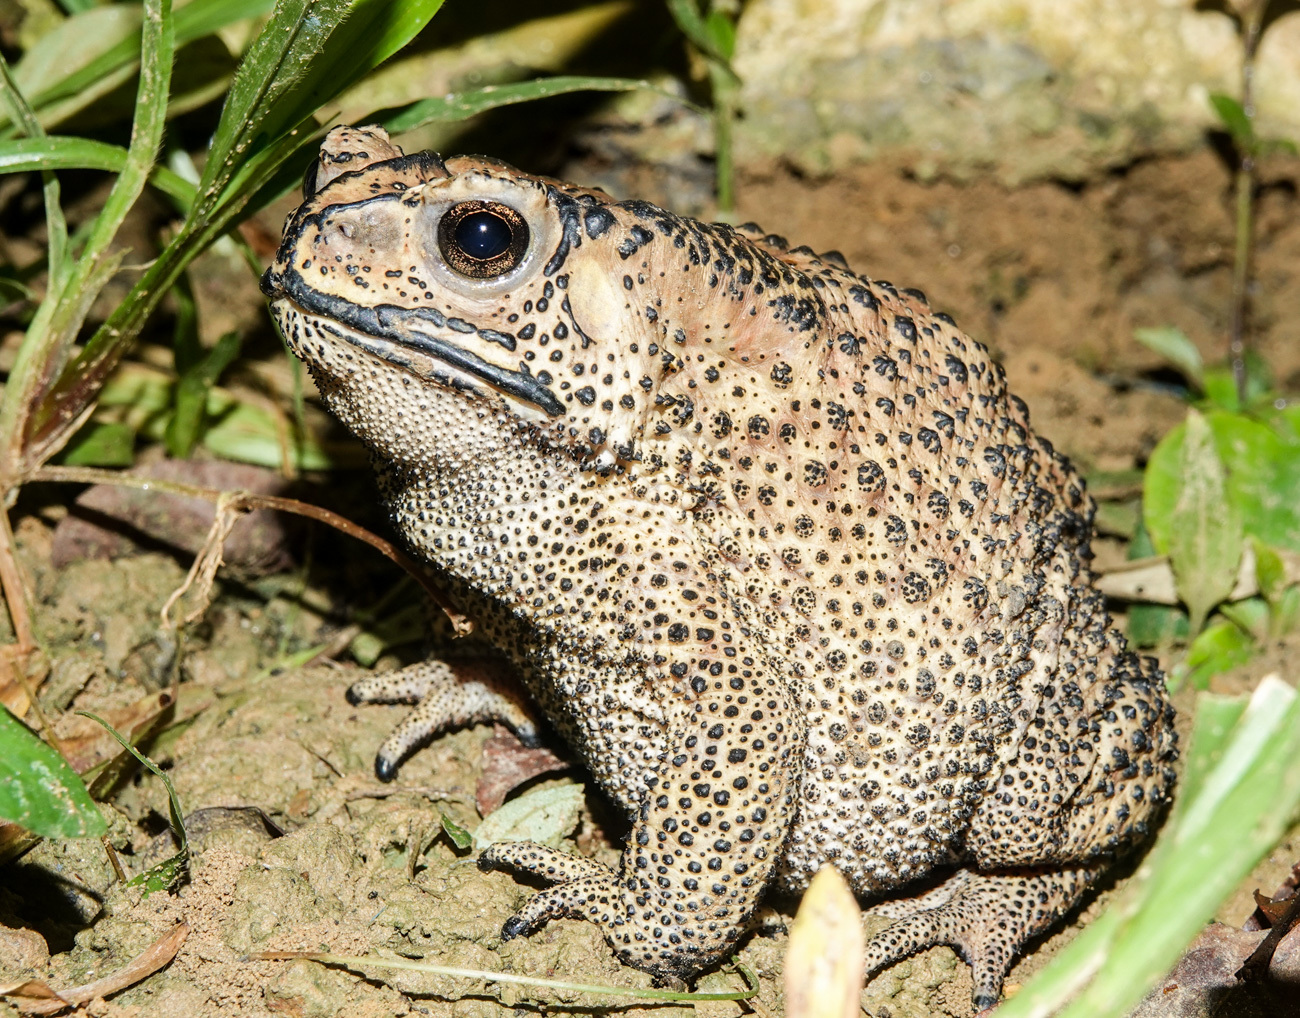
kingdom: Animalia
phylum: Chordata
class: Amphibia
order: Anura
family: Bufonidae
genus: Duttaphrynus
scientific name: Duttaphrynus melanostictus
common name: Common sunda toad
